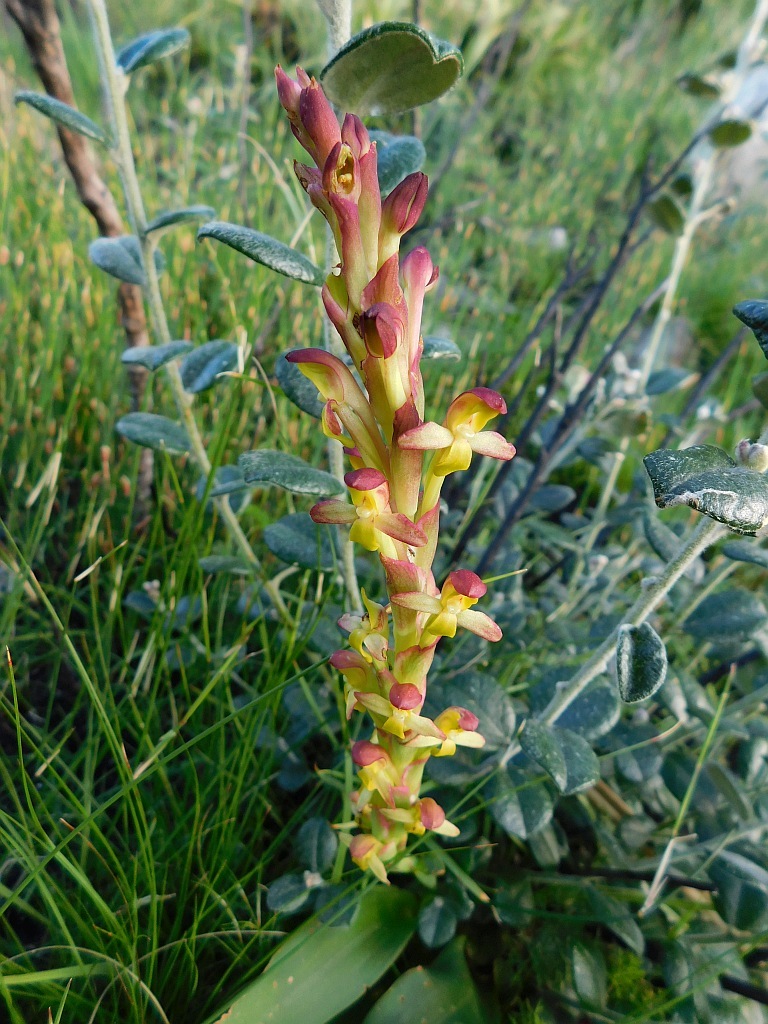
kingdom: Plantae
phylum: Tracheophyta
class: Liliopsida
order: Asparagales
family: Orchidaceae
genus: Disa
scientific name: Disa comosa
